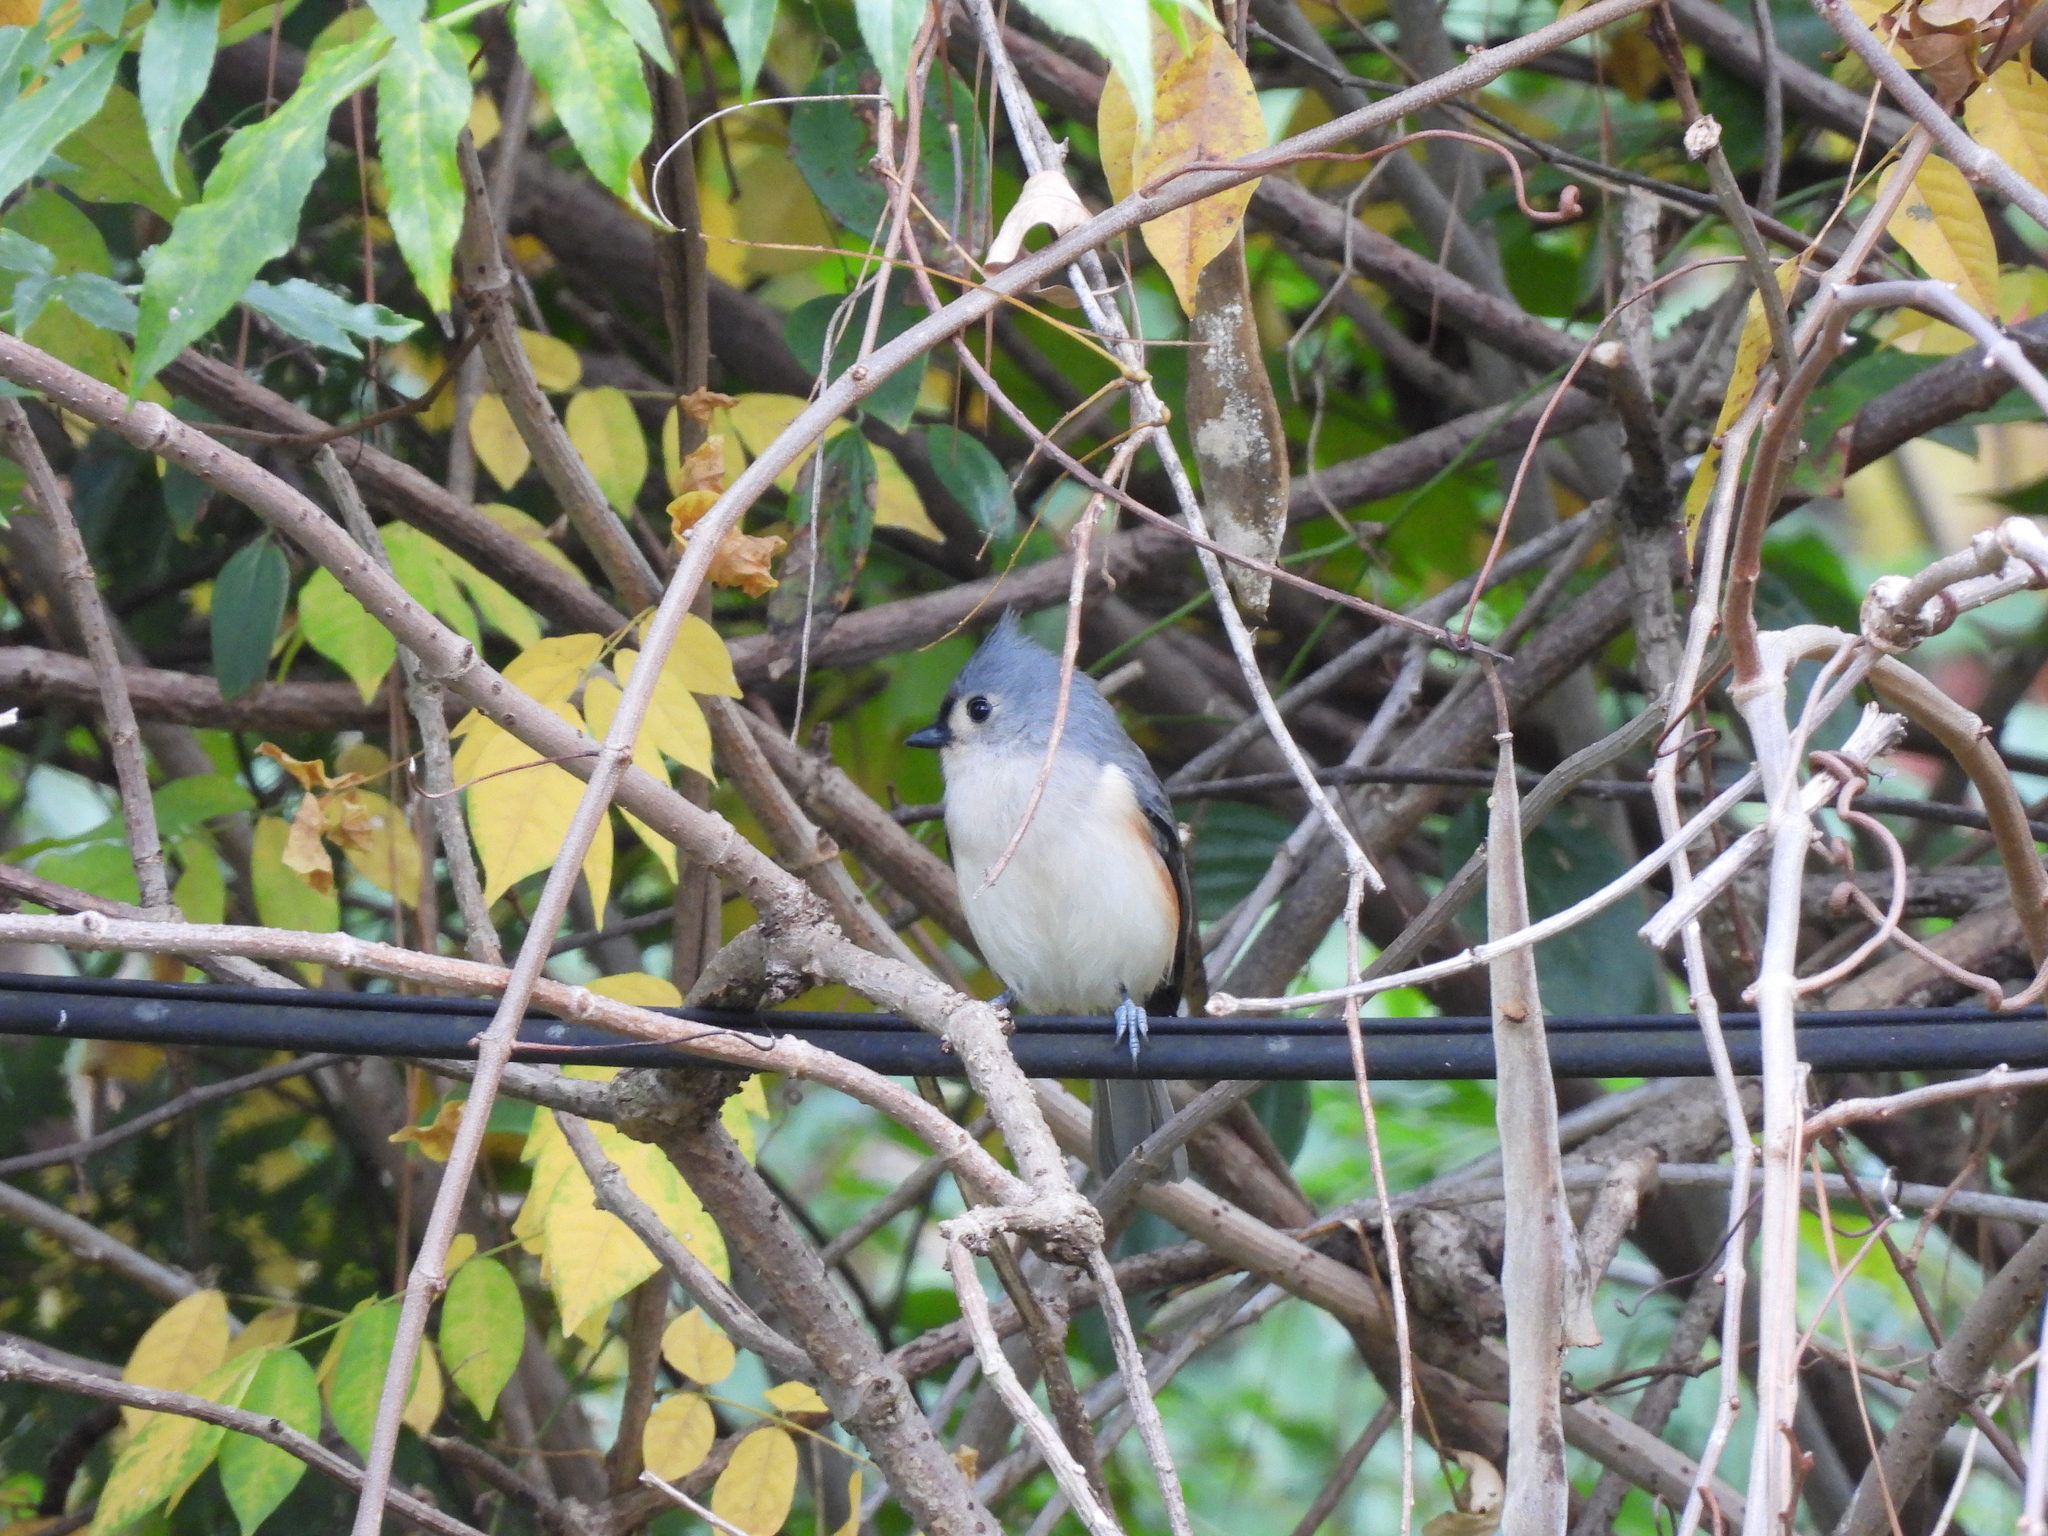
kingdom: Animalia
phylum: Chordata
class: Aves
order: Passeriformes
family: Paridae
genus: Baeolophus
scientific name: Baeolophus bicolor
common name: Tufted titmouse
